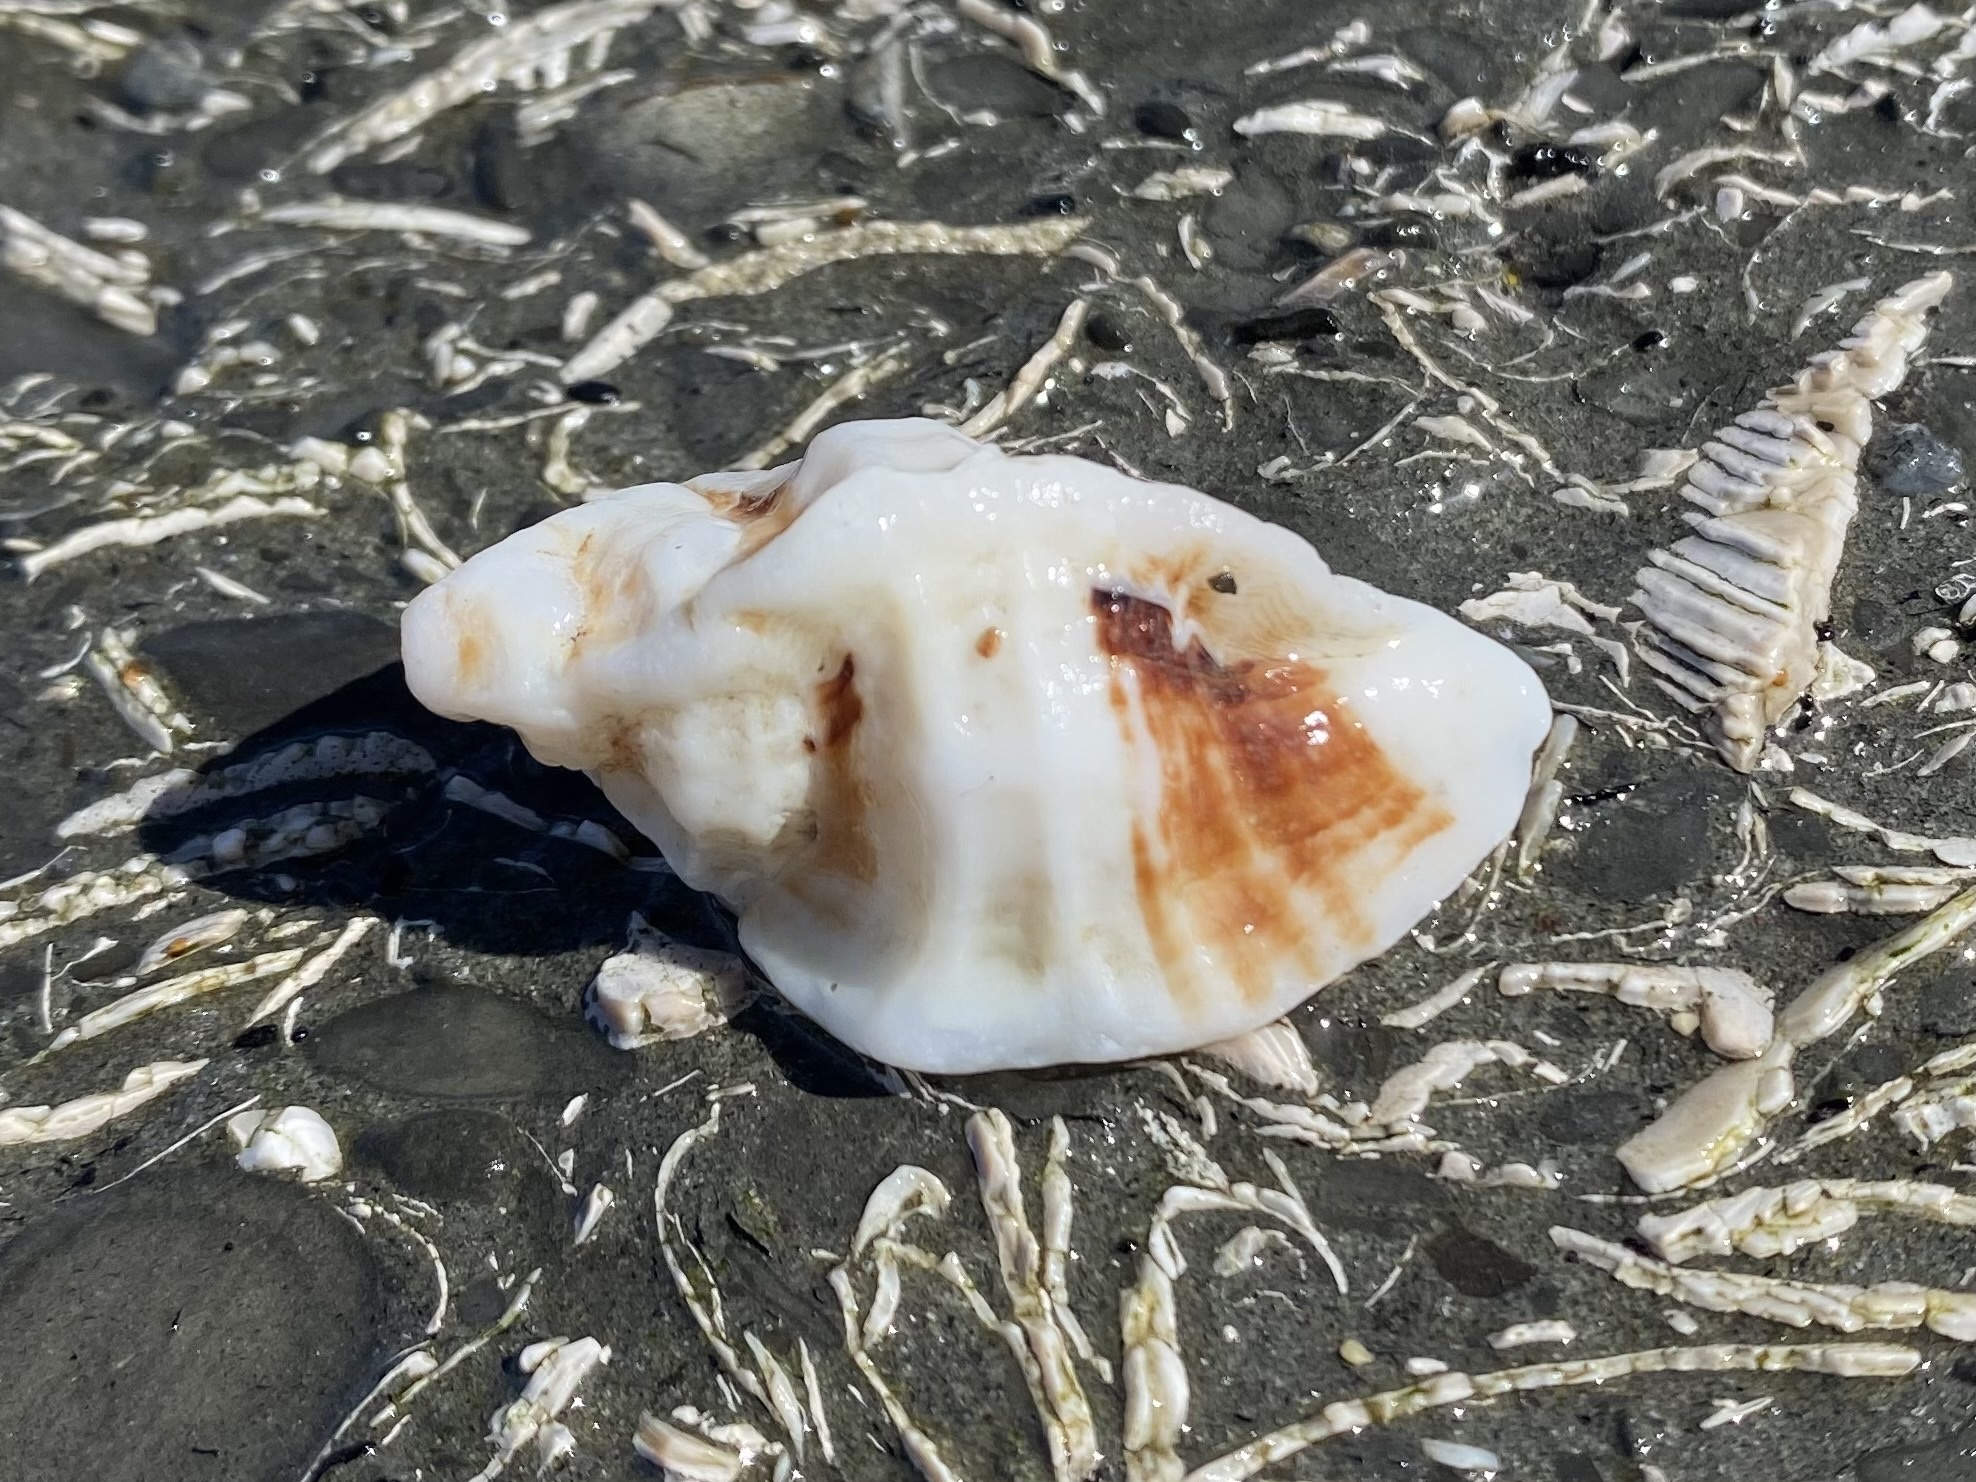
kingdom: Animalia
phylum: Mollusca
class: Gastropoda
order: Neogastropoda
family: Muricidae
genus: Ceratostoma
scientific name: Ceratostoma foliatum
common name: Foliate thorn purpura
